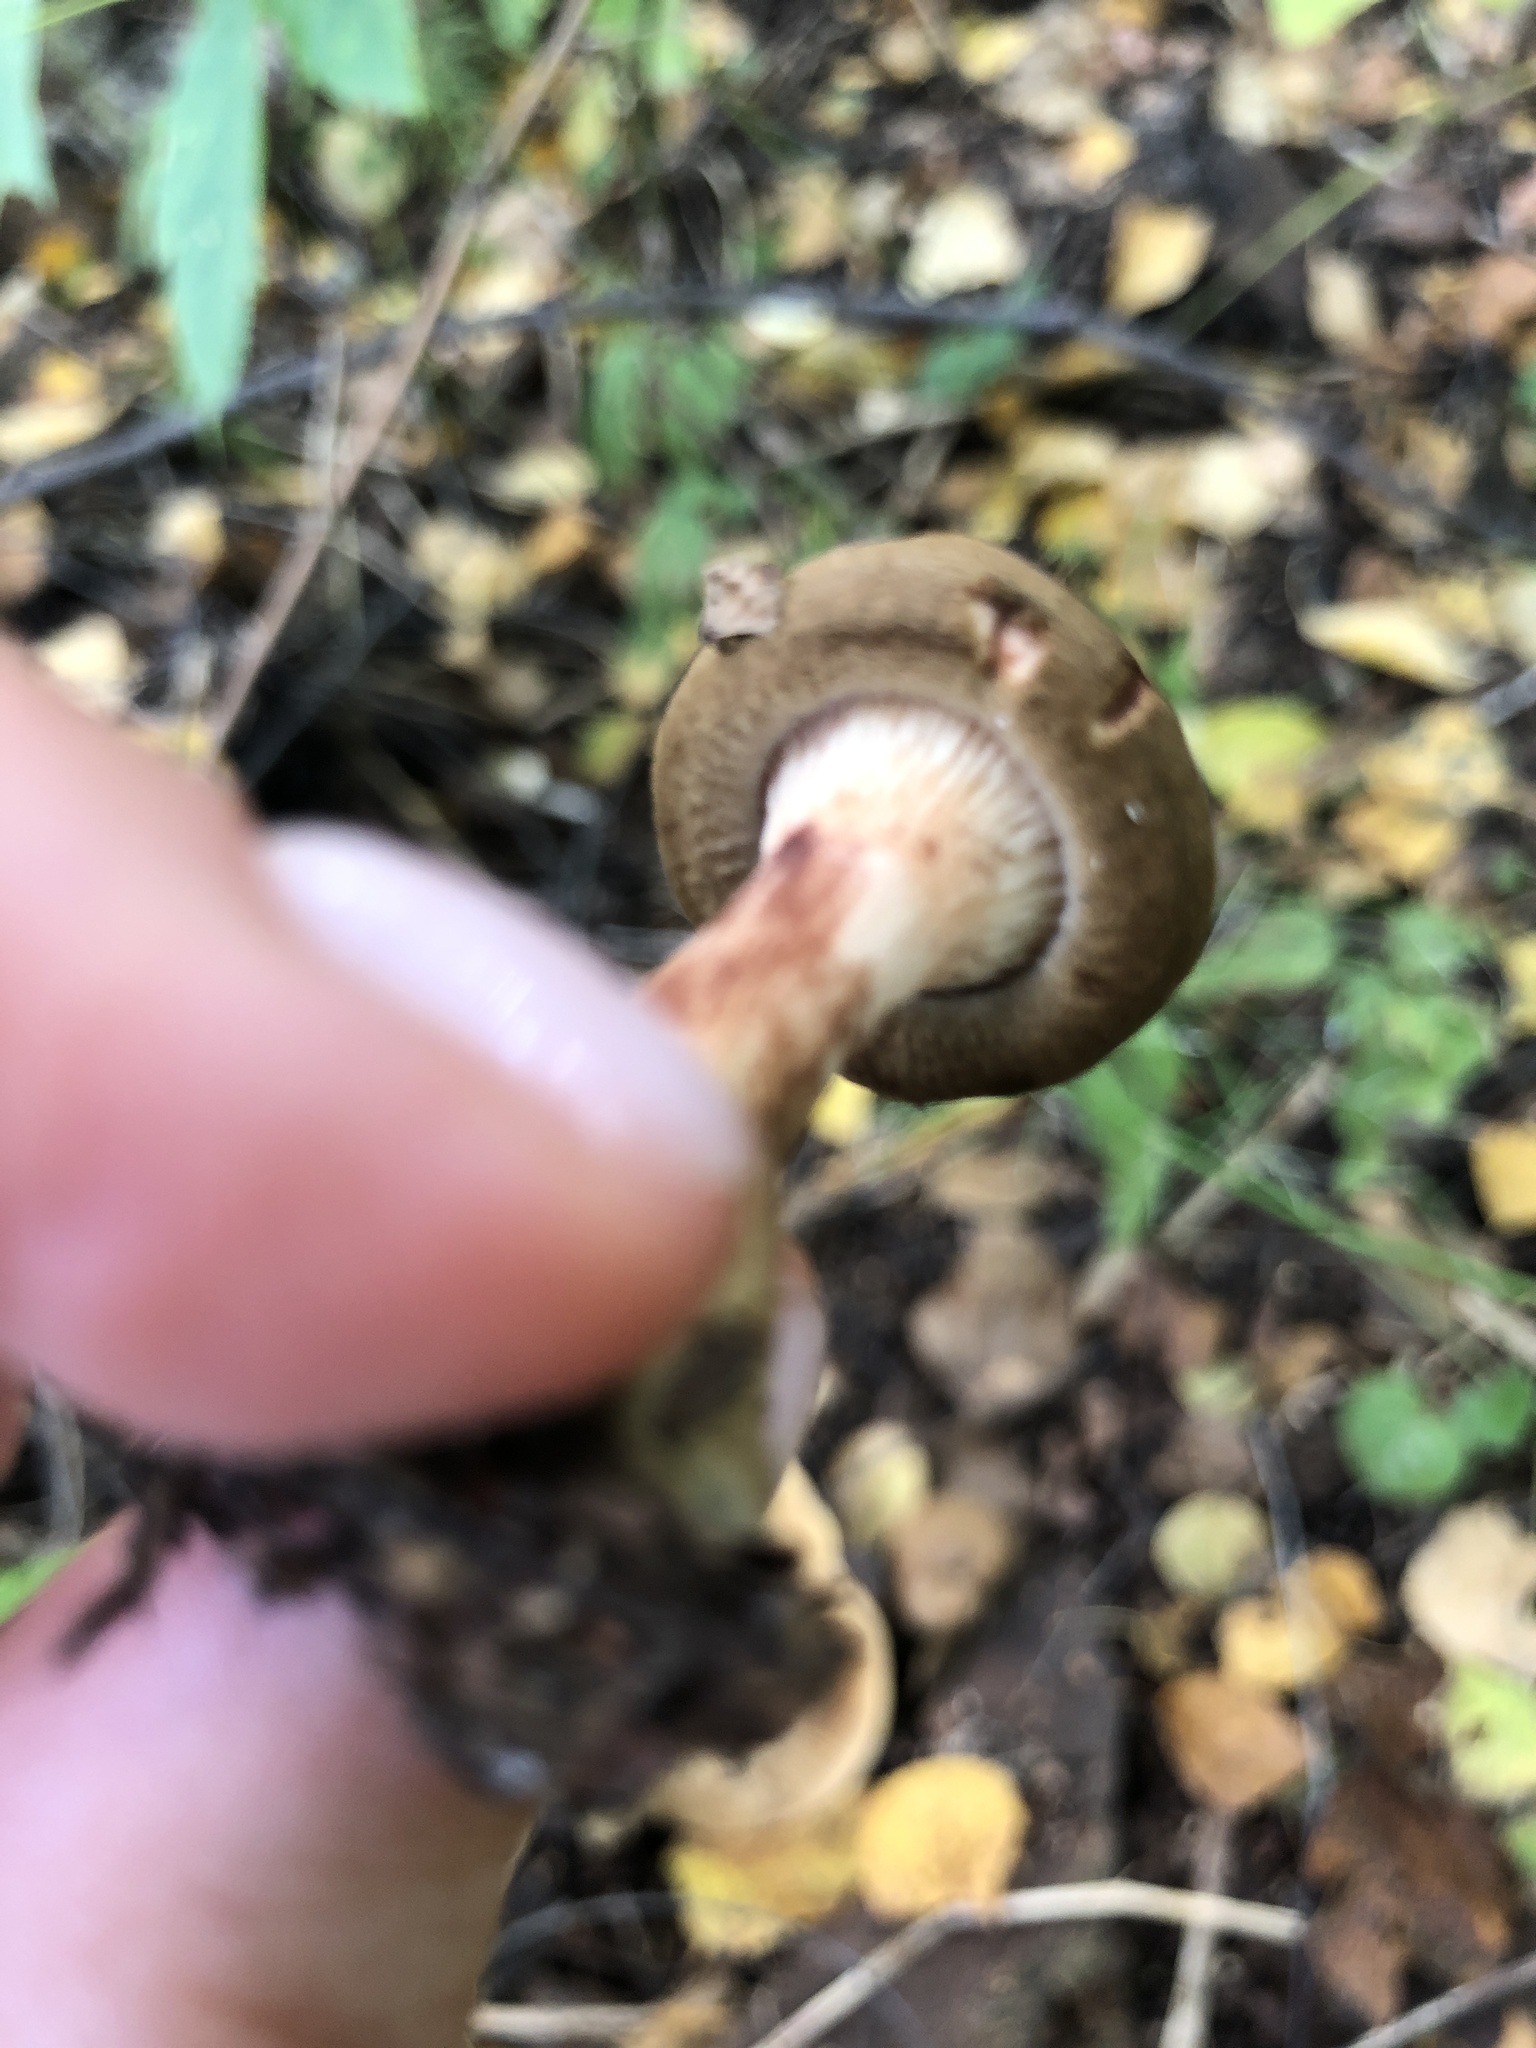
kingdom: Fungi
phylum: Basidiomycota
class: Agaricomycetes
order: Boletales
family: Paxillaceae
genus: Paxillus
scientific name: Paxillus involutus
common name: Brown roll rim
